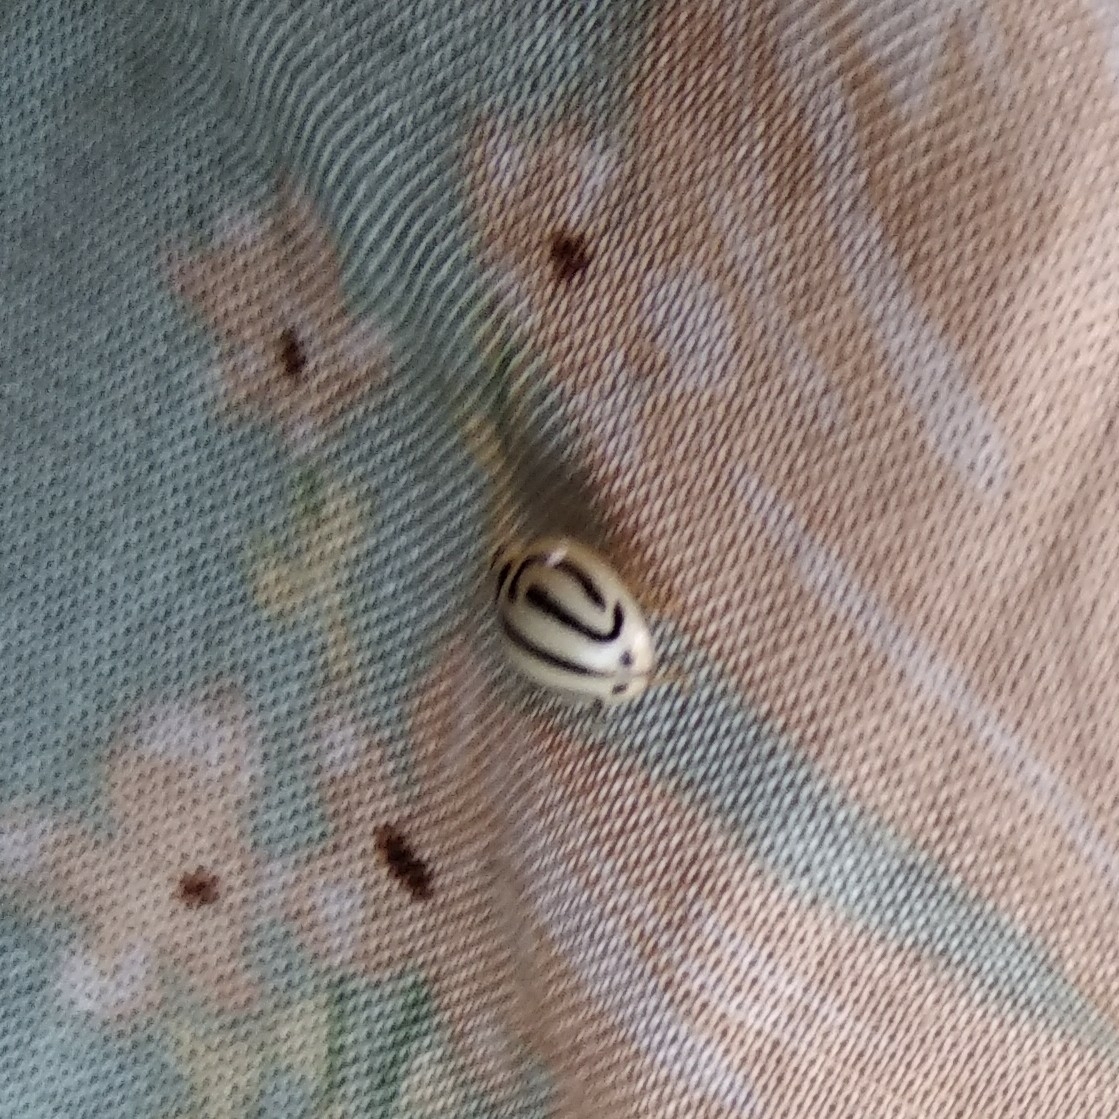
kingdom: Animalia
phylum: Arthropoda
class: Insecta
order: Coleoptera
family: Coccinellidae
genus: Anegleis
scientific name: Anegleis cardoni
